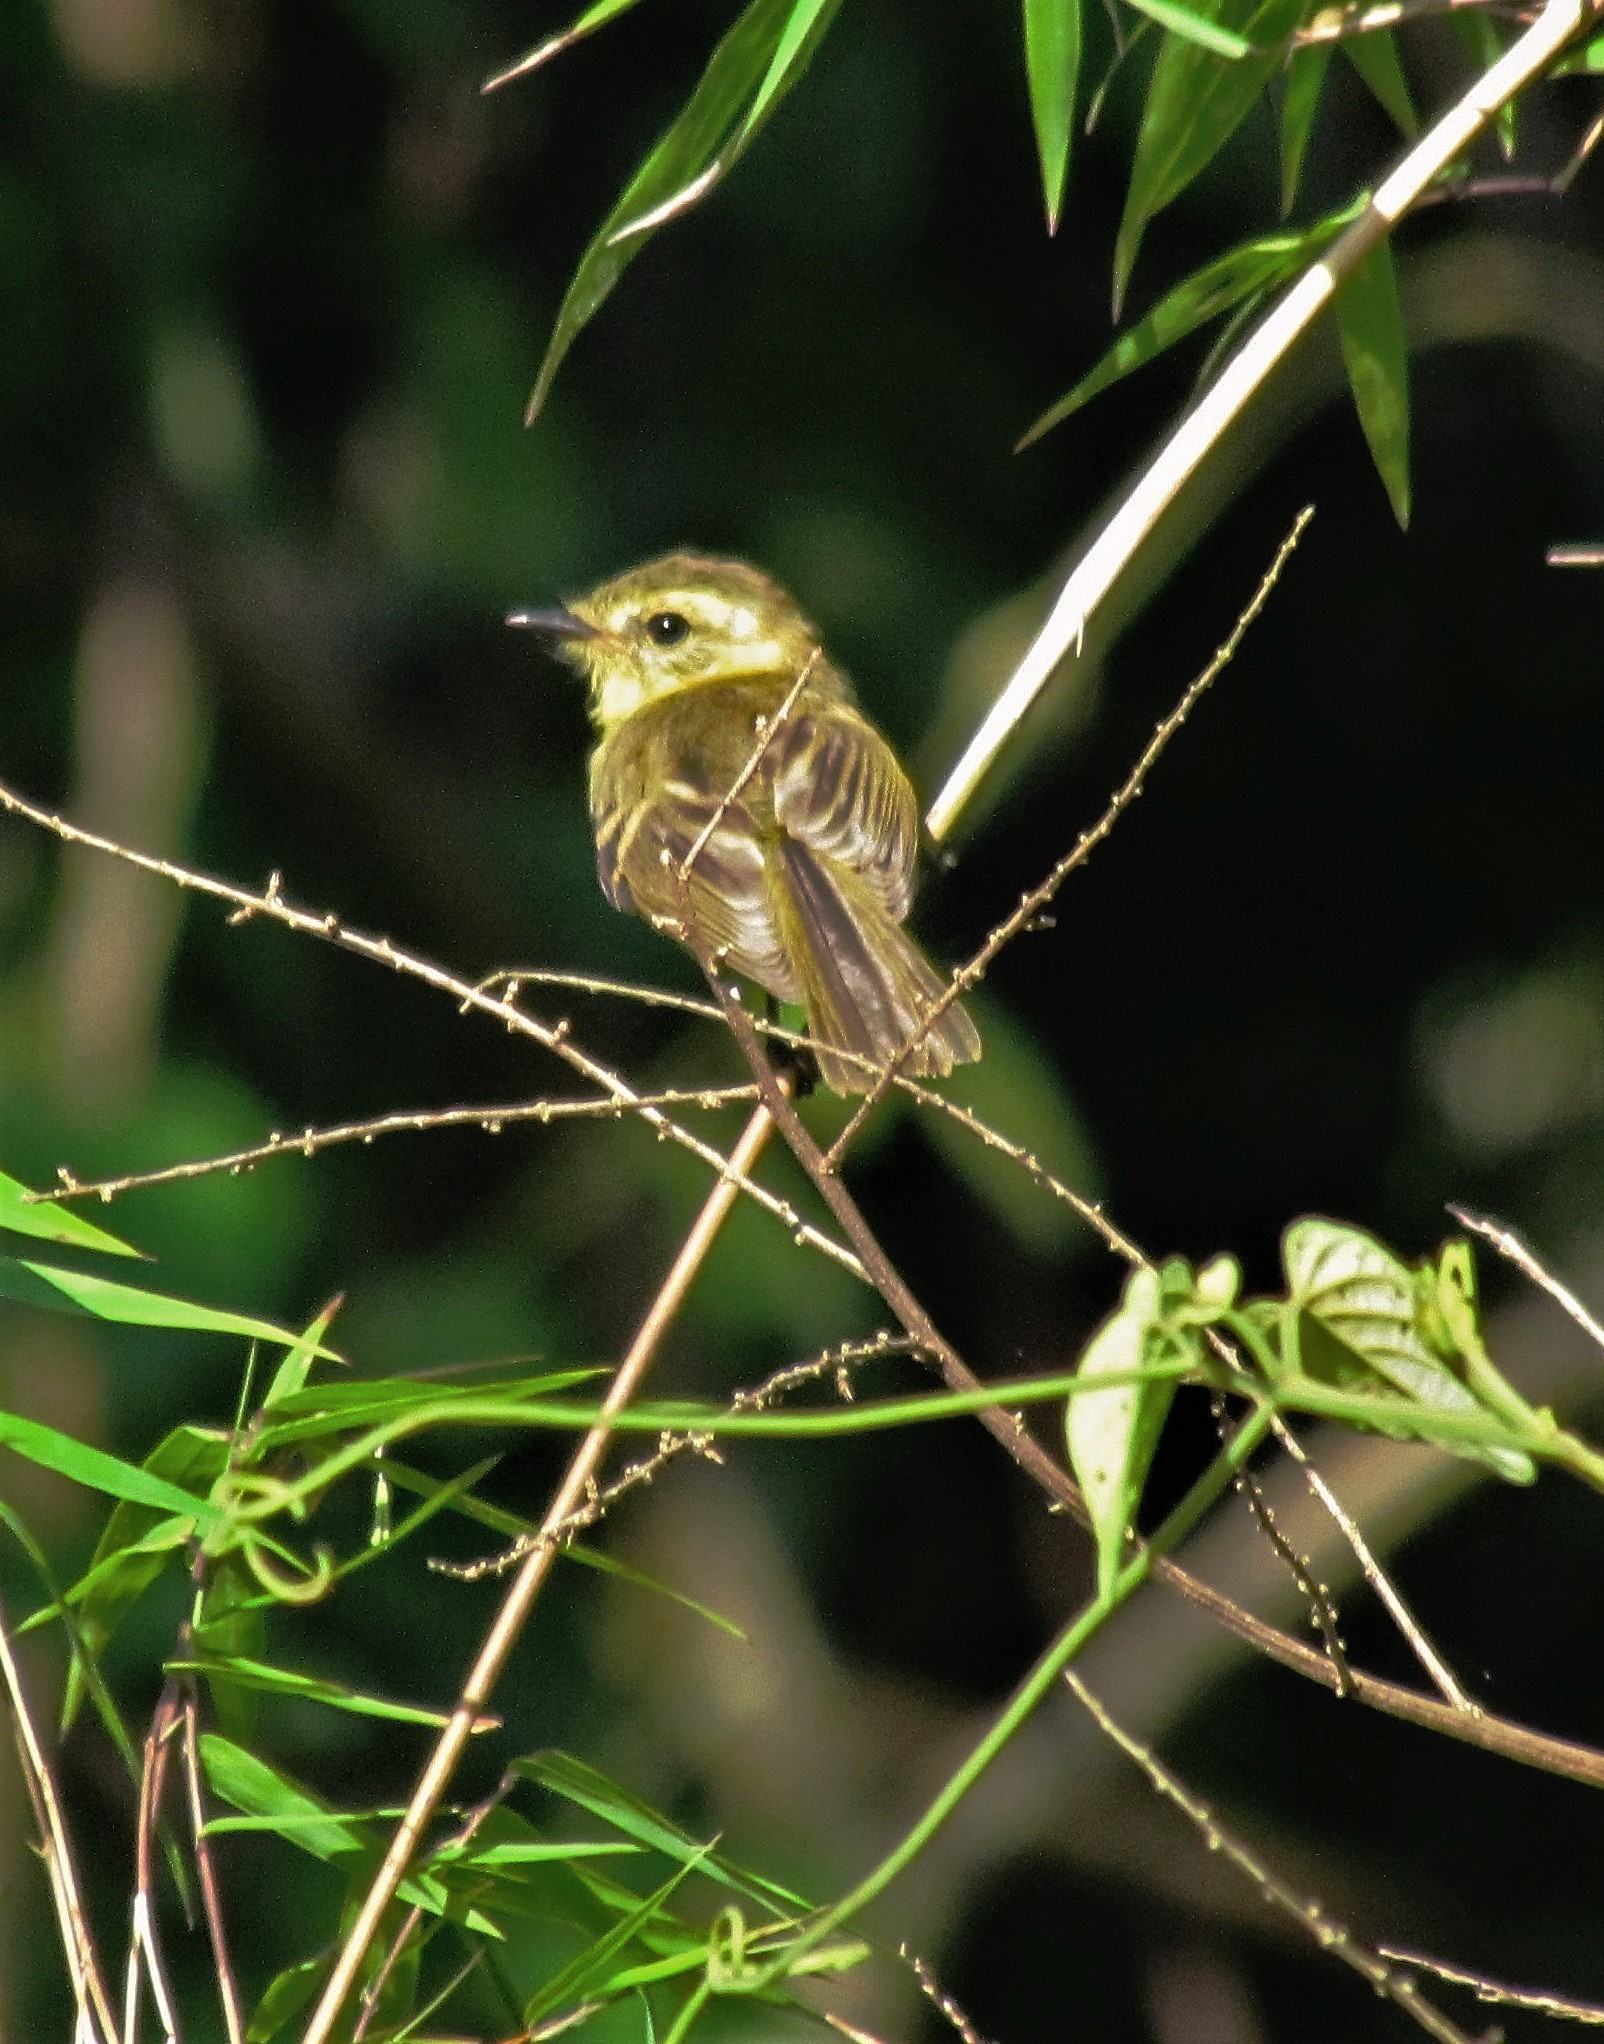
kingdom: Animalia
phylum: Chordata
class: Aves
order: Passeriformes
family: Tyrannidae
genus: Capsiempis
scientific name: Capsiempis flaveola
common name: Yellow tyrannulet
